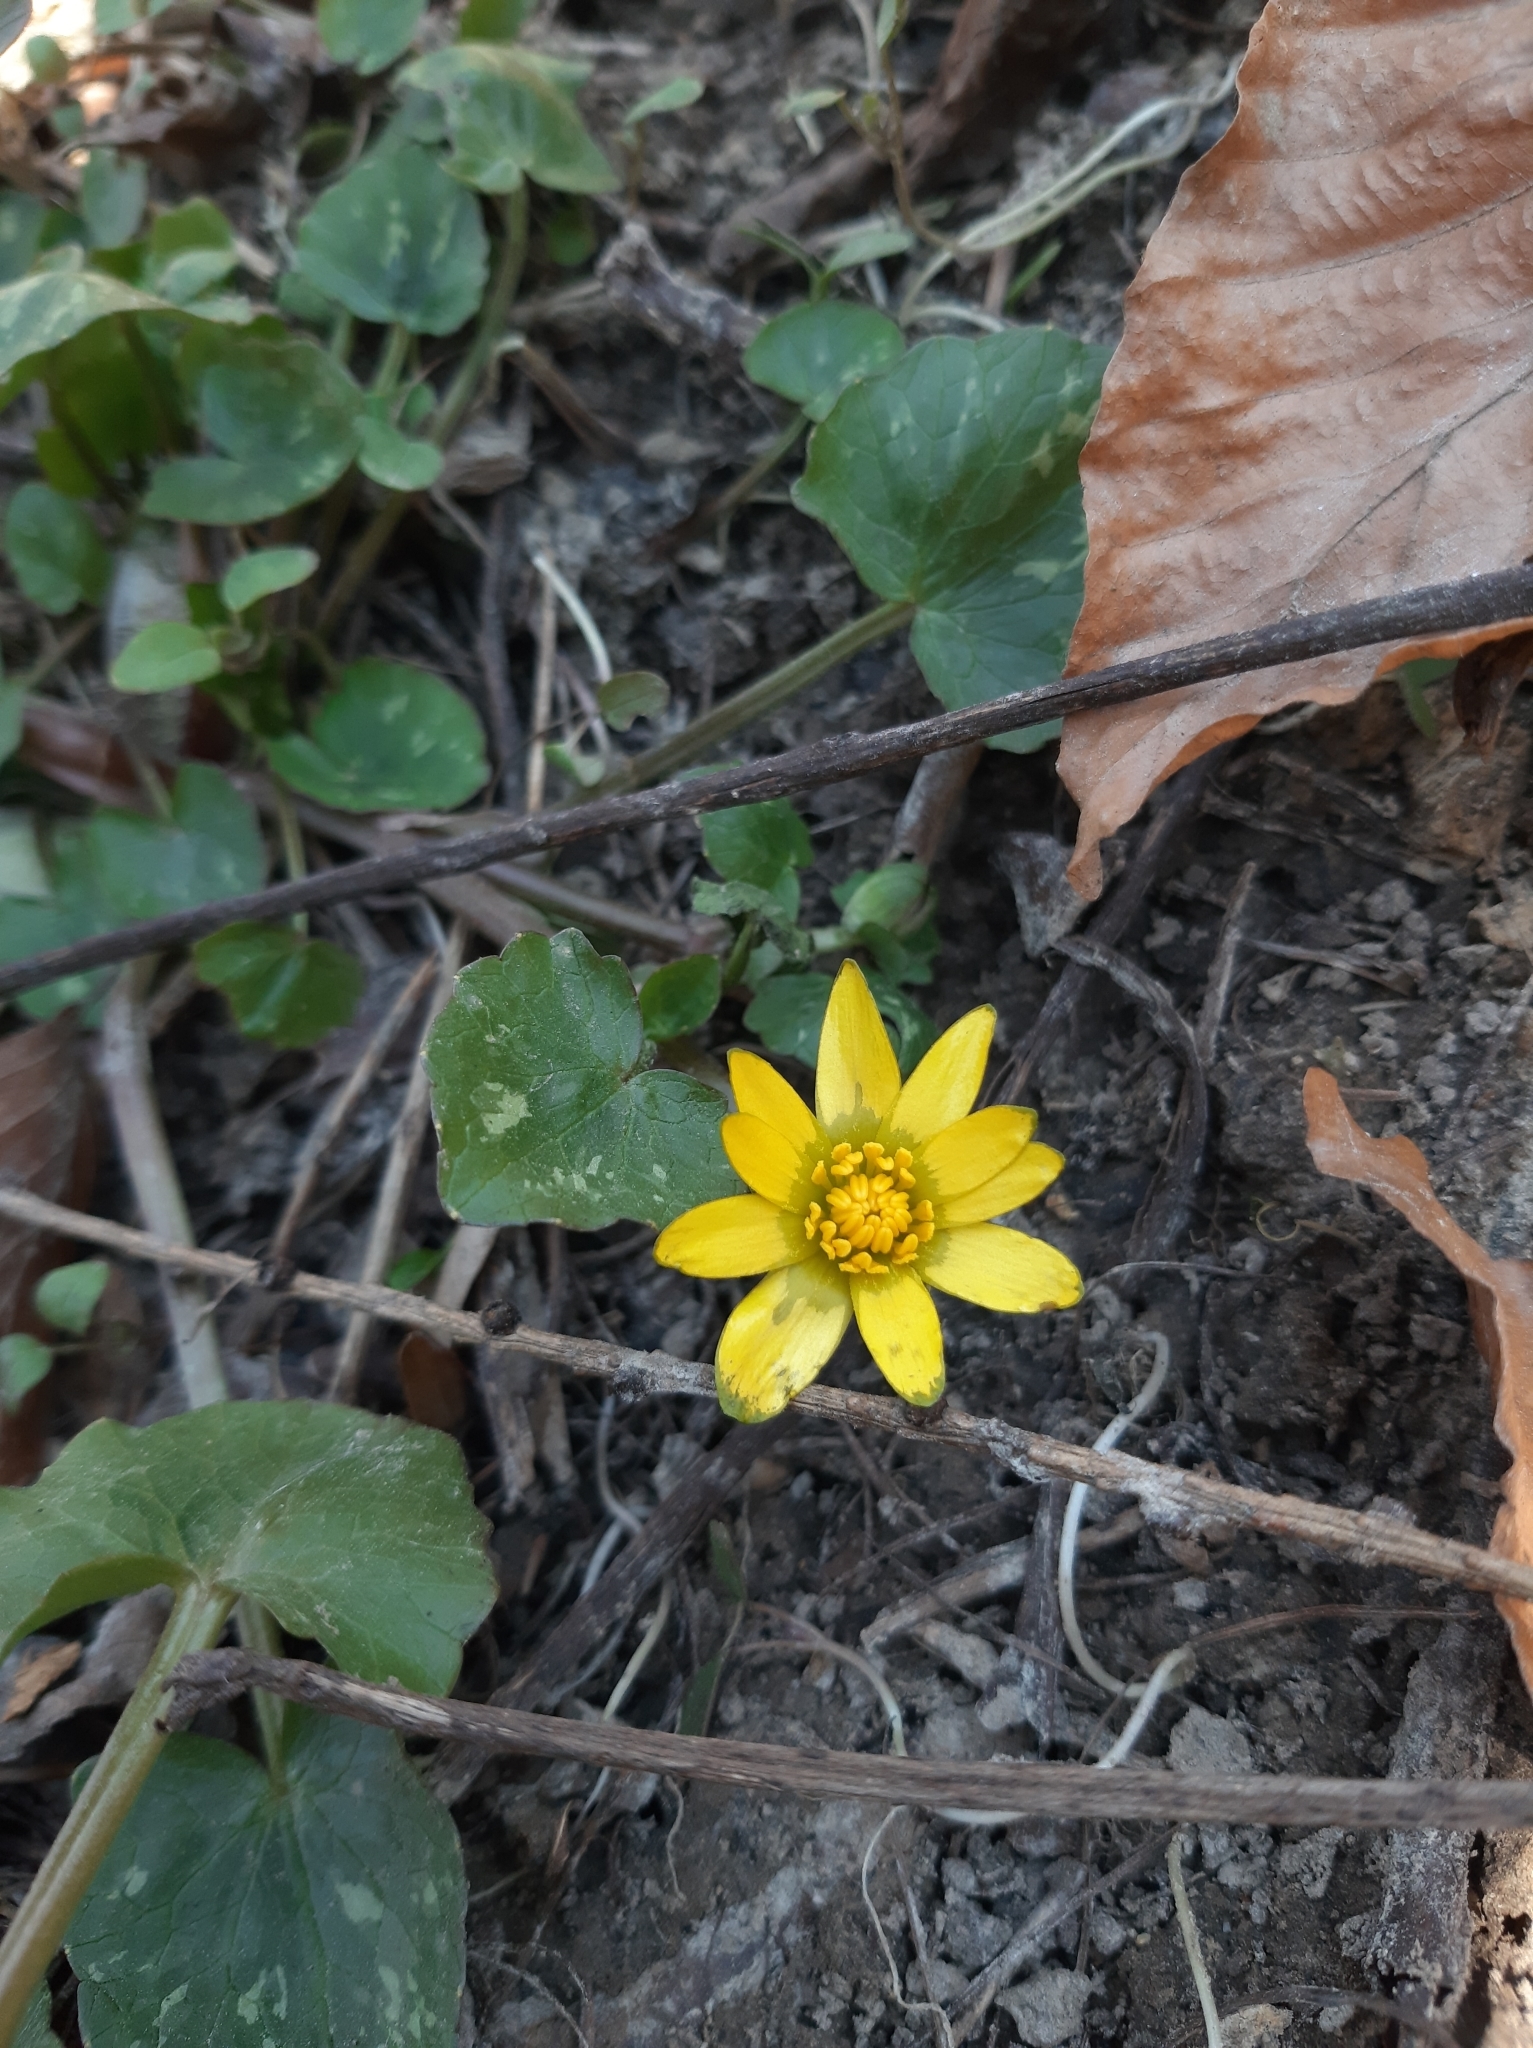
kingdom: Plantae
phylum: Tracheophyta
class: Magnoliopsida
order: Ranunculales
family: Ranunculaceae
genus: Ficaria
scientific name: Ficaria verna
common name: Lesser celandine
